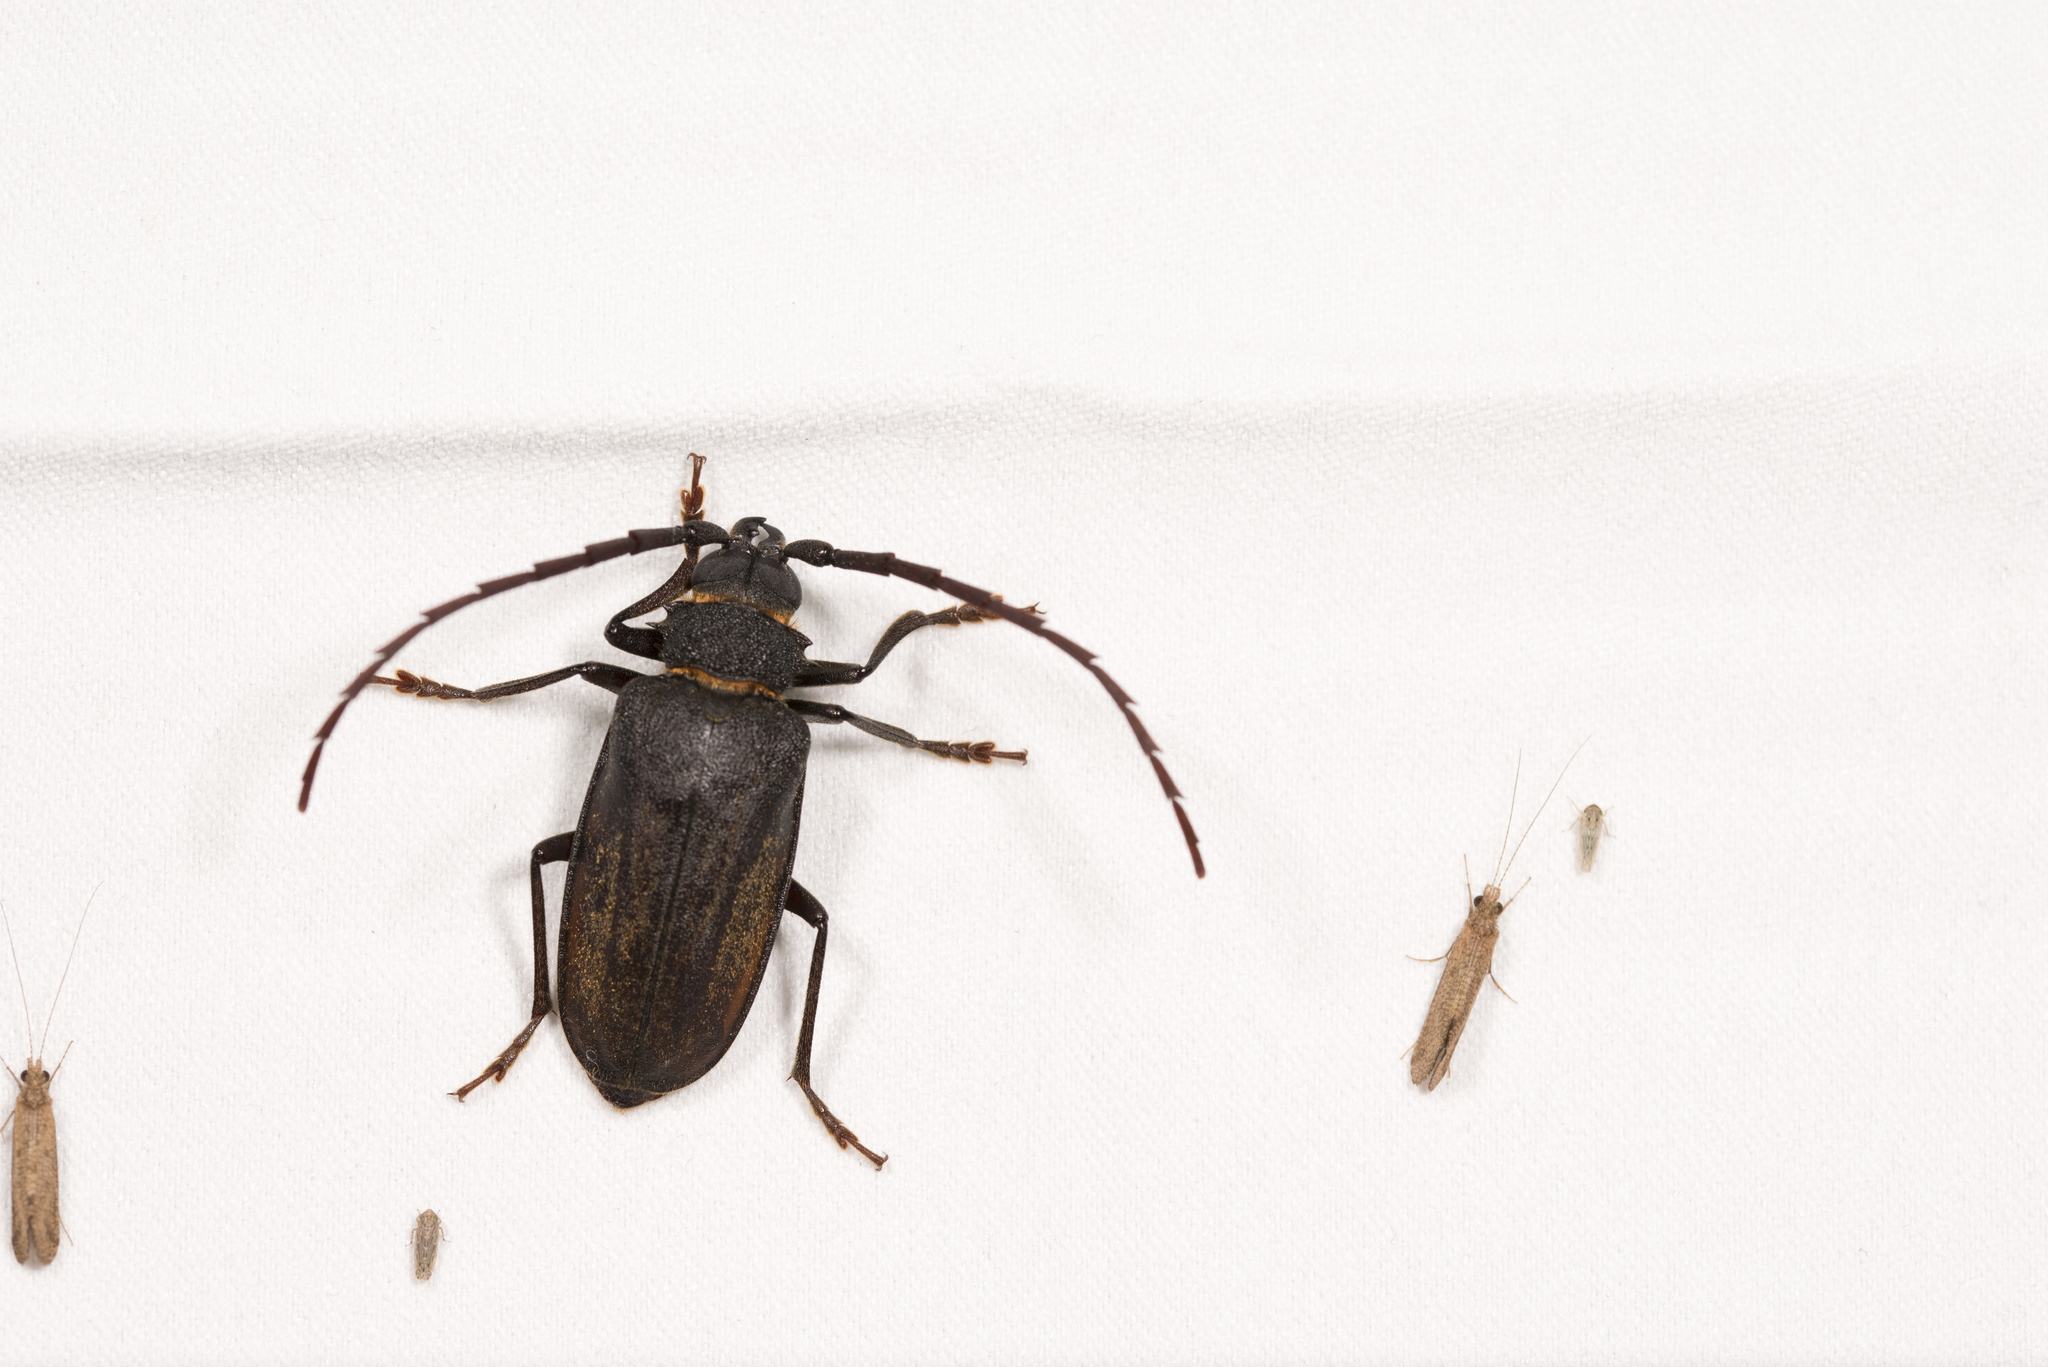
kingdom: Animalia
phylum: Arthropoda
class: Insecta
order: Coleoptera
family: Cerambycidae
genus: Priotyrannus
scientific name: Priotyrannus closteroides
